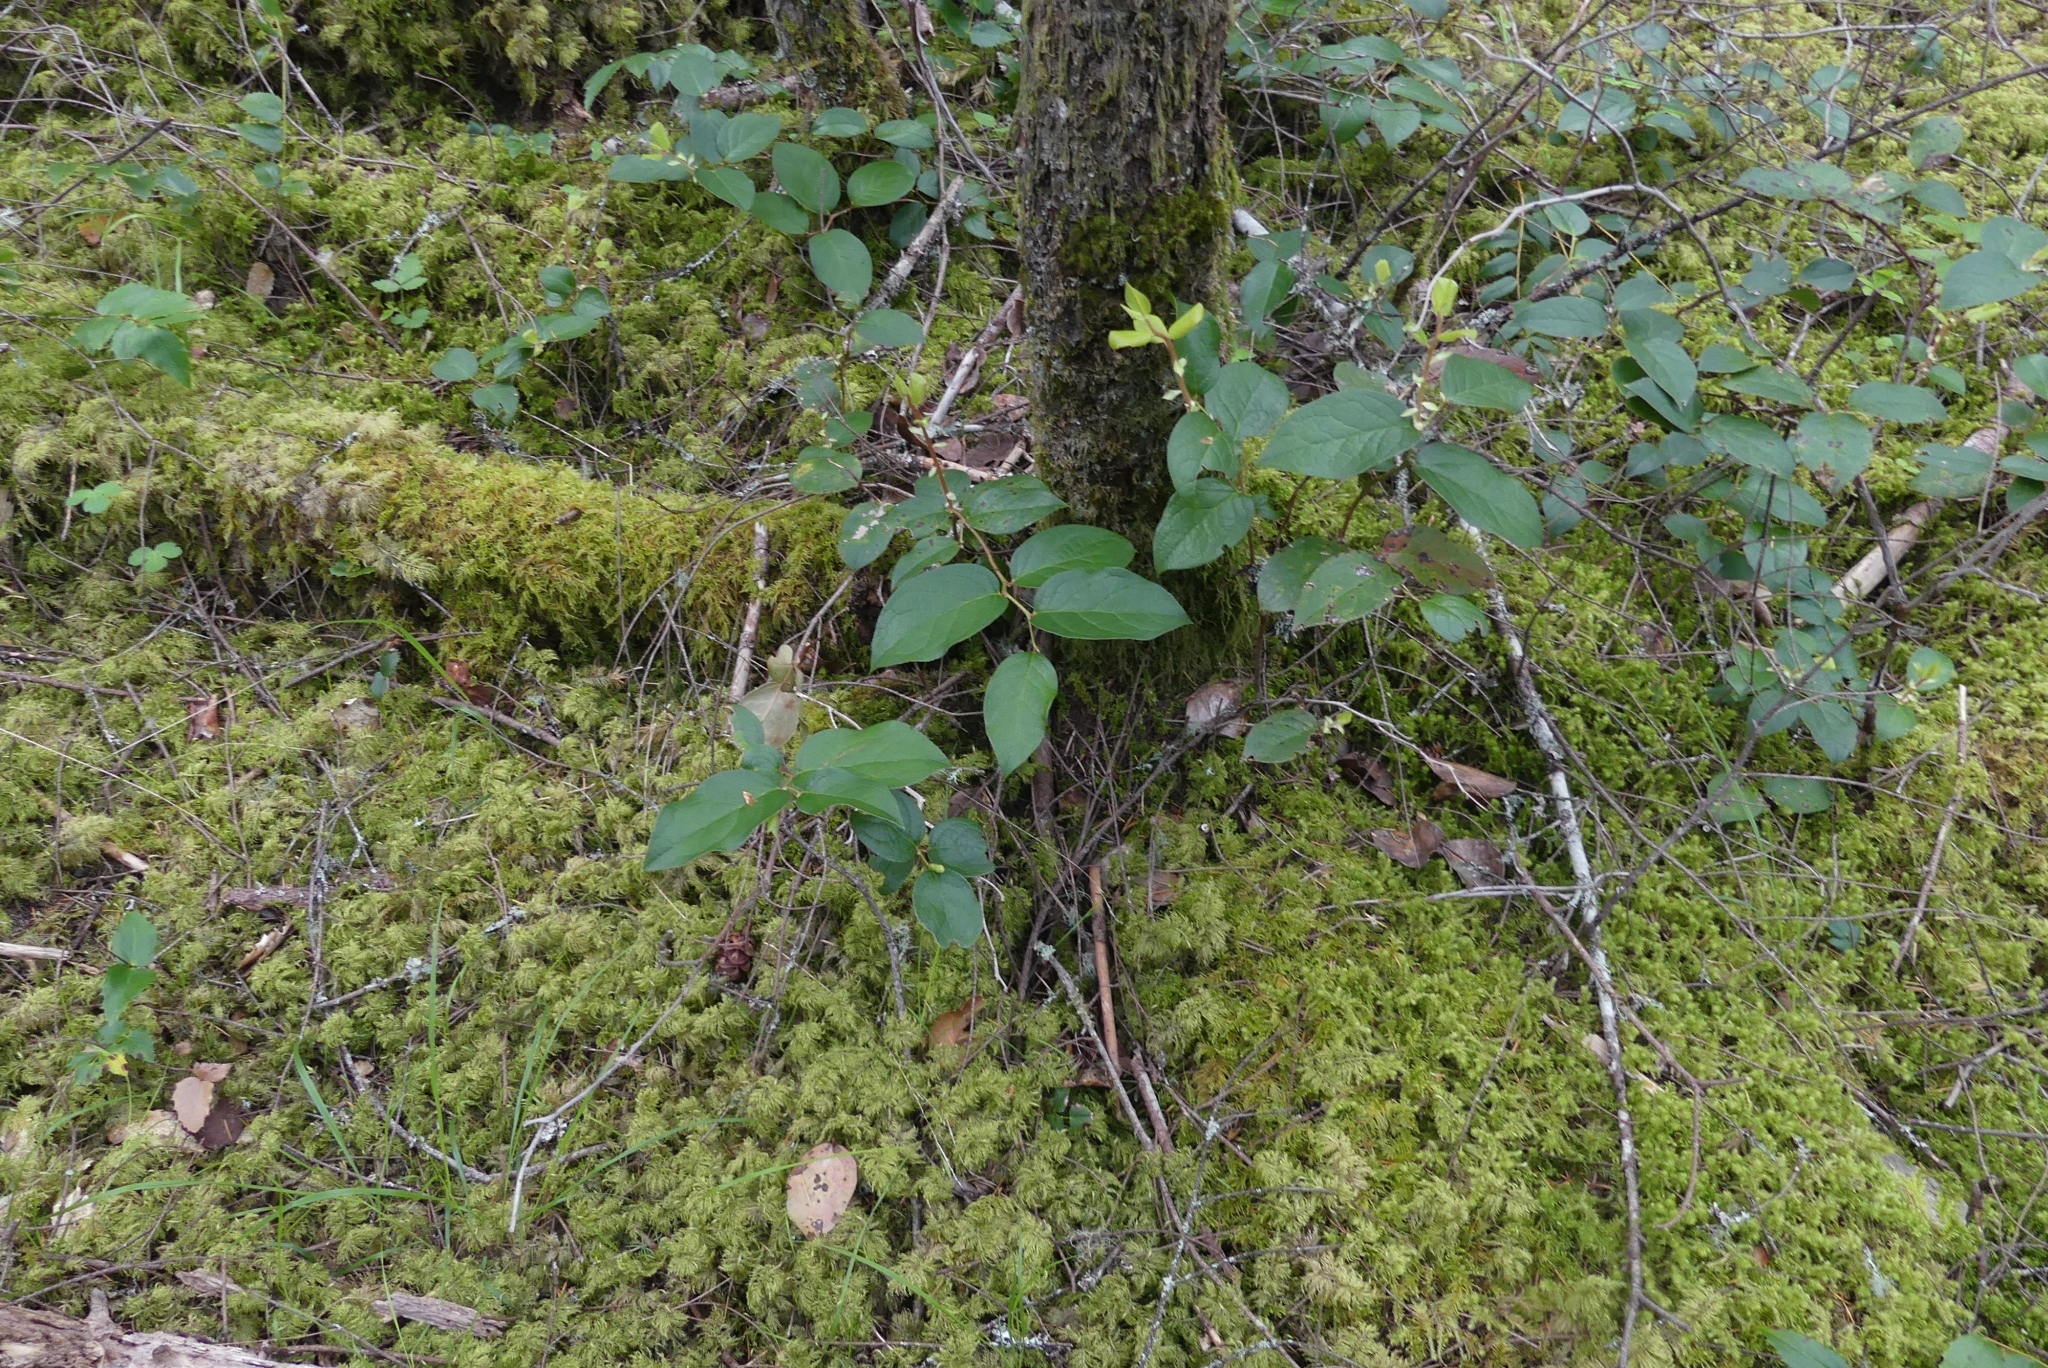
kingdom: Plantae
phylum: Tracheophyta
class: Magnoliopsida
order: Ericales
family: Ericaceae
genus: Gaultheria
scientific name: Gaultheria shallon
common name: Shallon
